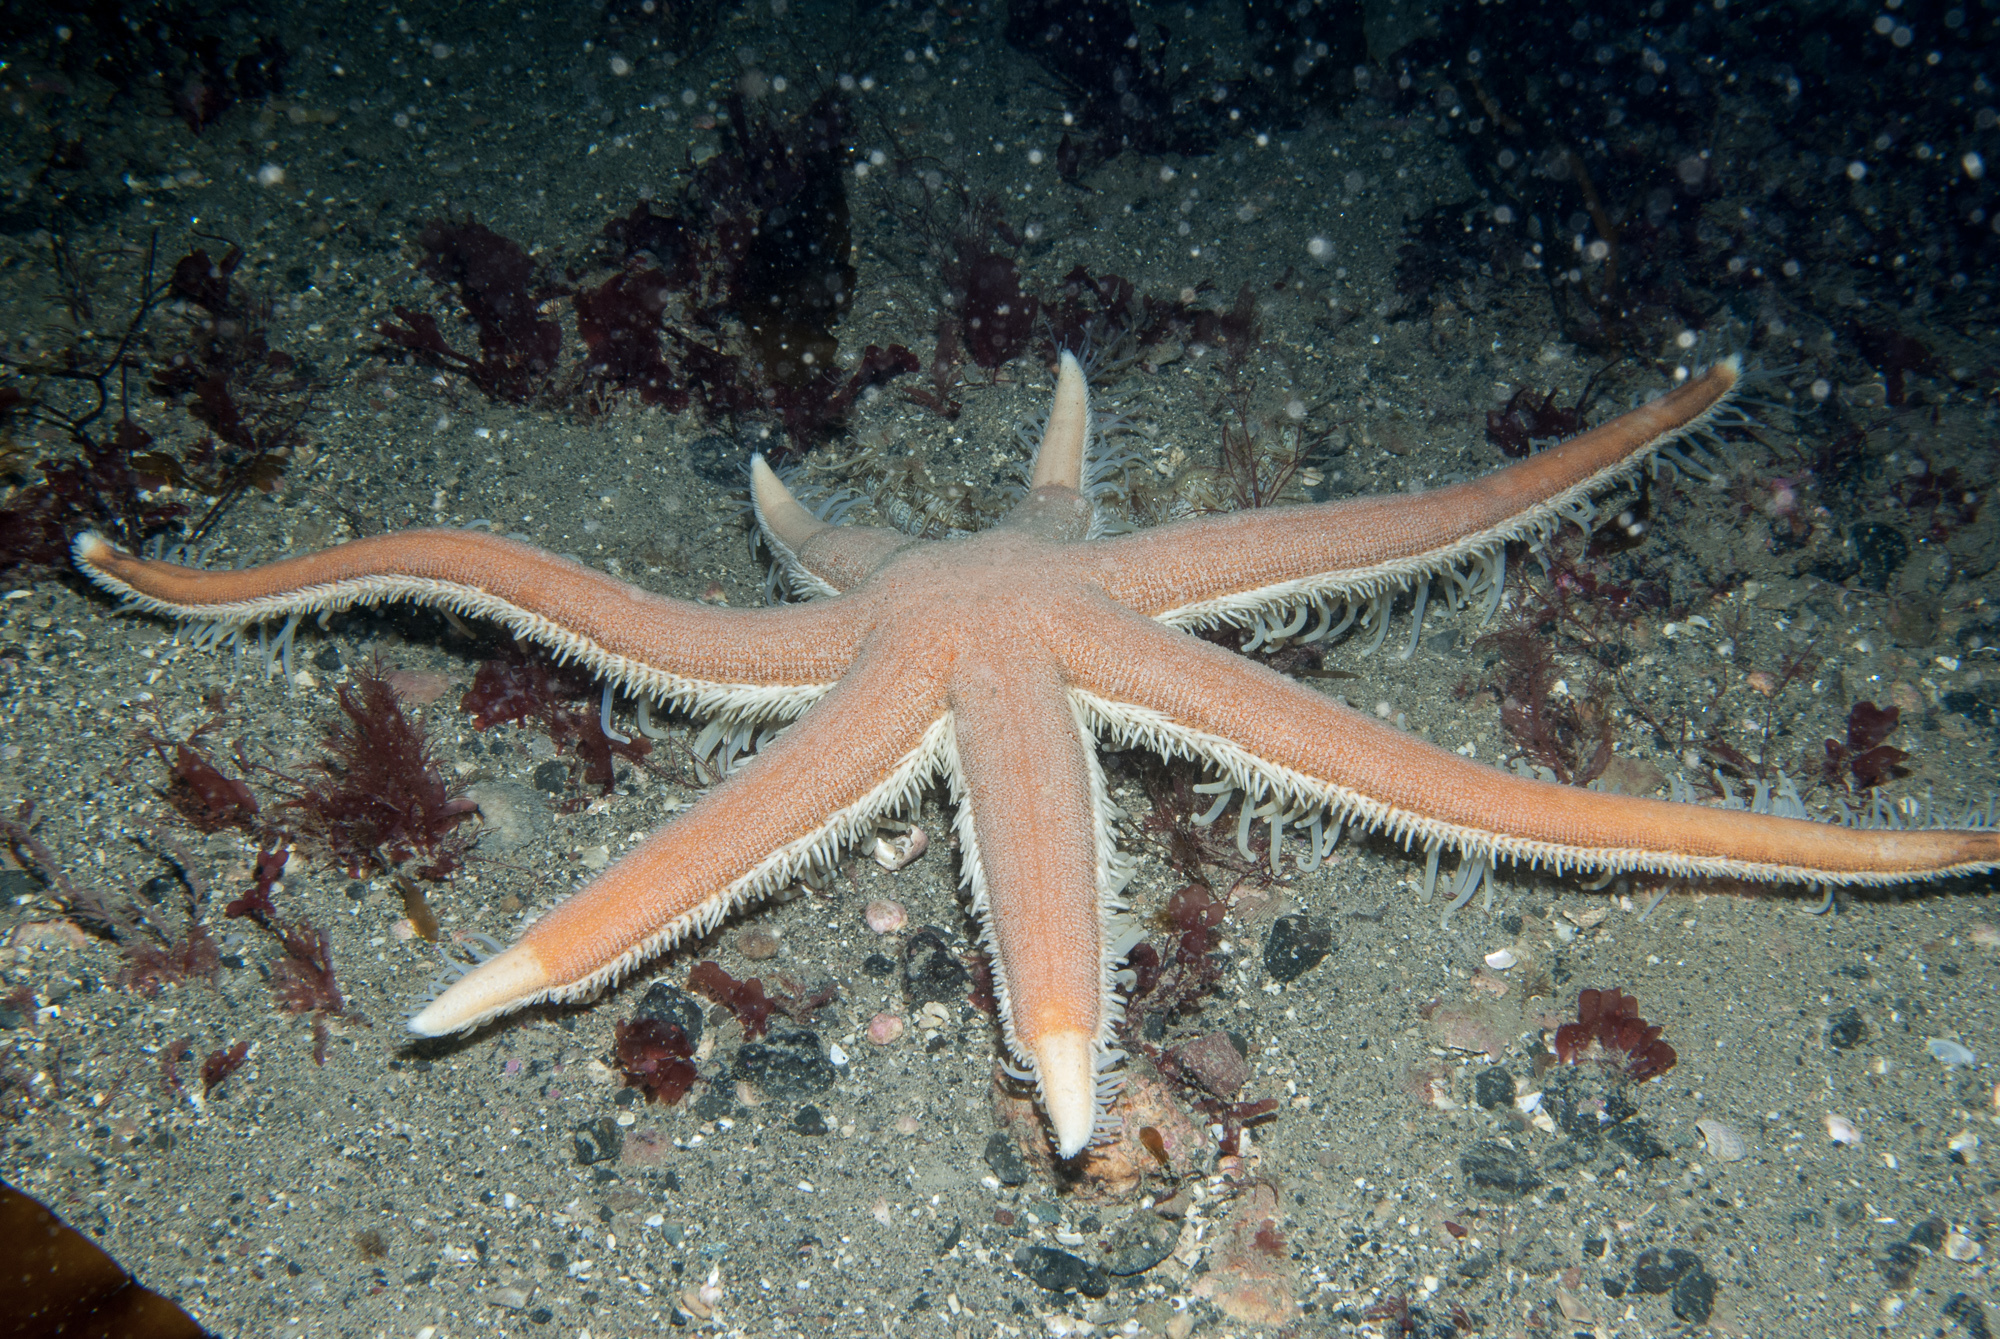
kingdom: Animalia
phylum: Echinodermata
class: Asteroidea
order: Paxillosida
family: Luidiidae
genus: Luidia
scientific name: Luidia ciliaris
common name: Seven-armed starfish
